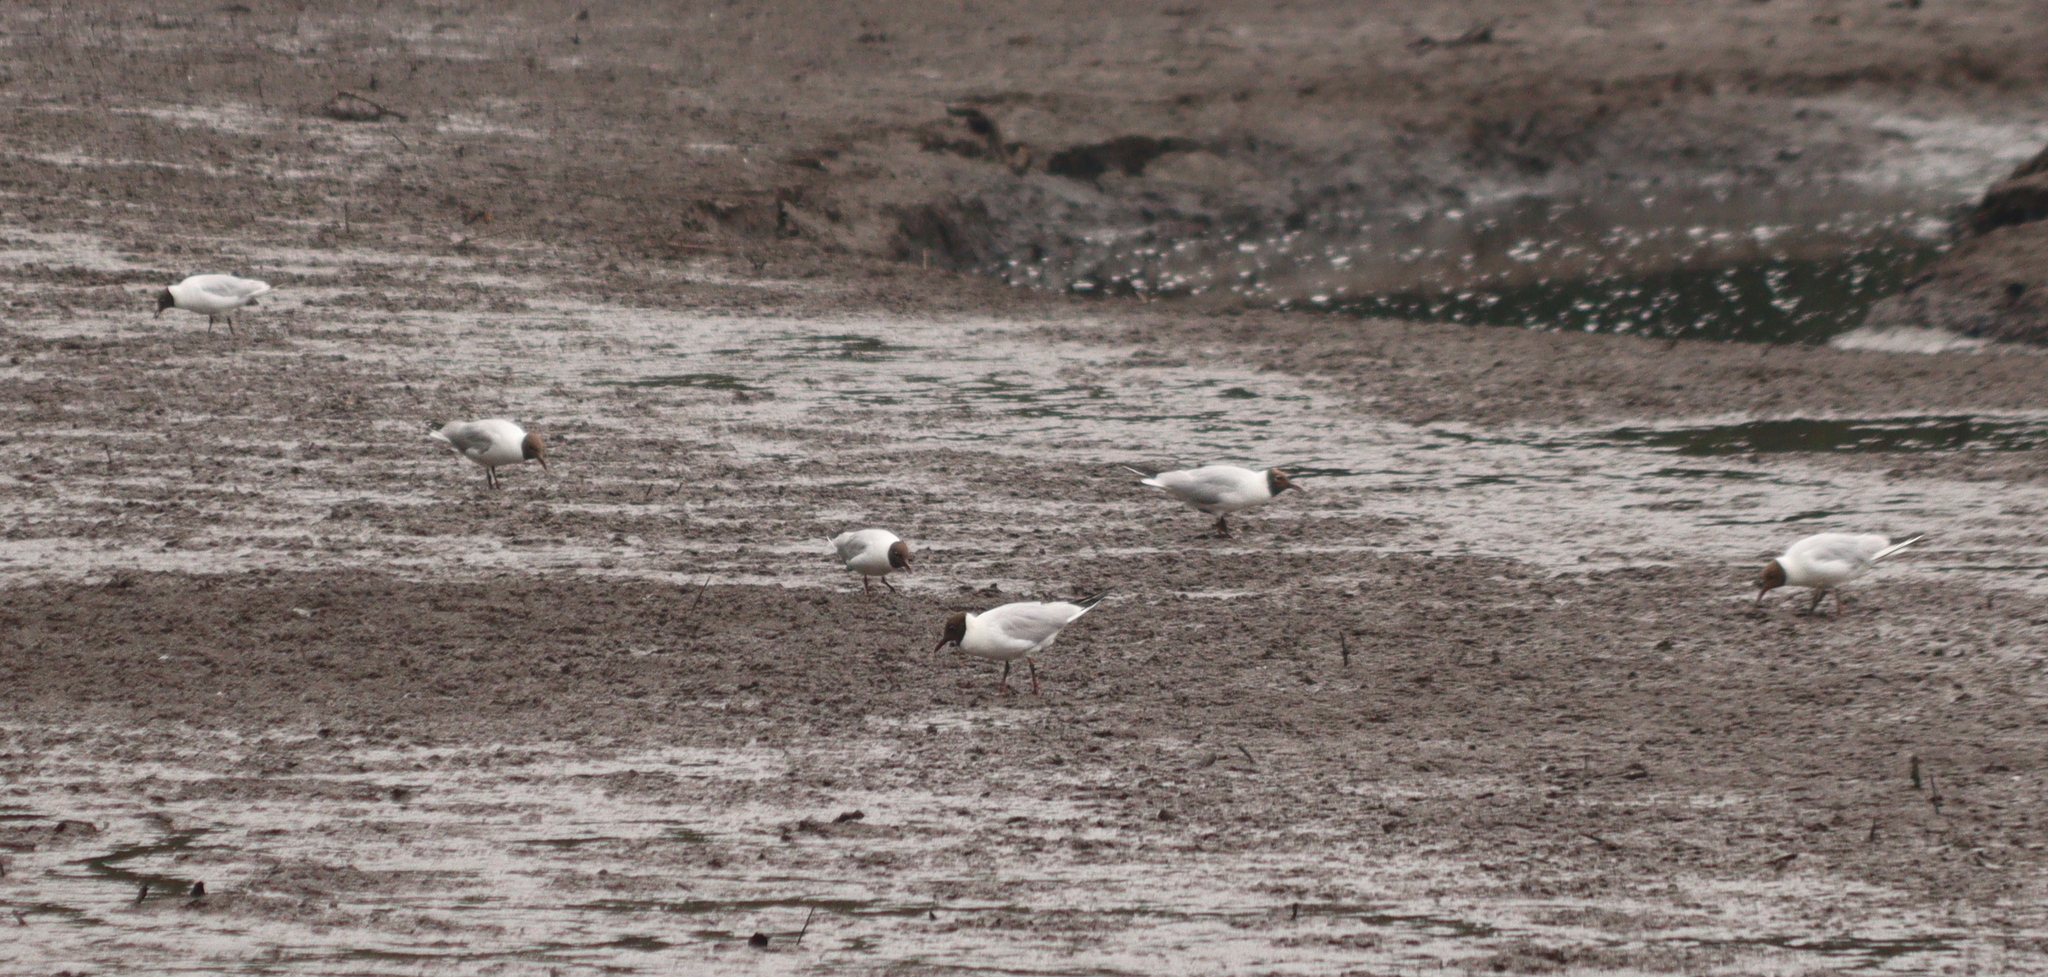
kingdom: Animalia
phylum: Chordata
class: Aves
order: Charadriiformes
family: Laridae
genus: Chroicocephalus
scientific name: Chroicocephalus ridibundus
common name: Black-headed gull
